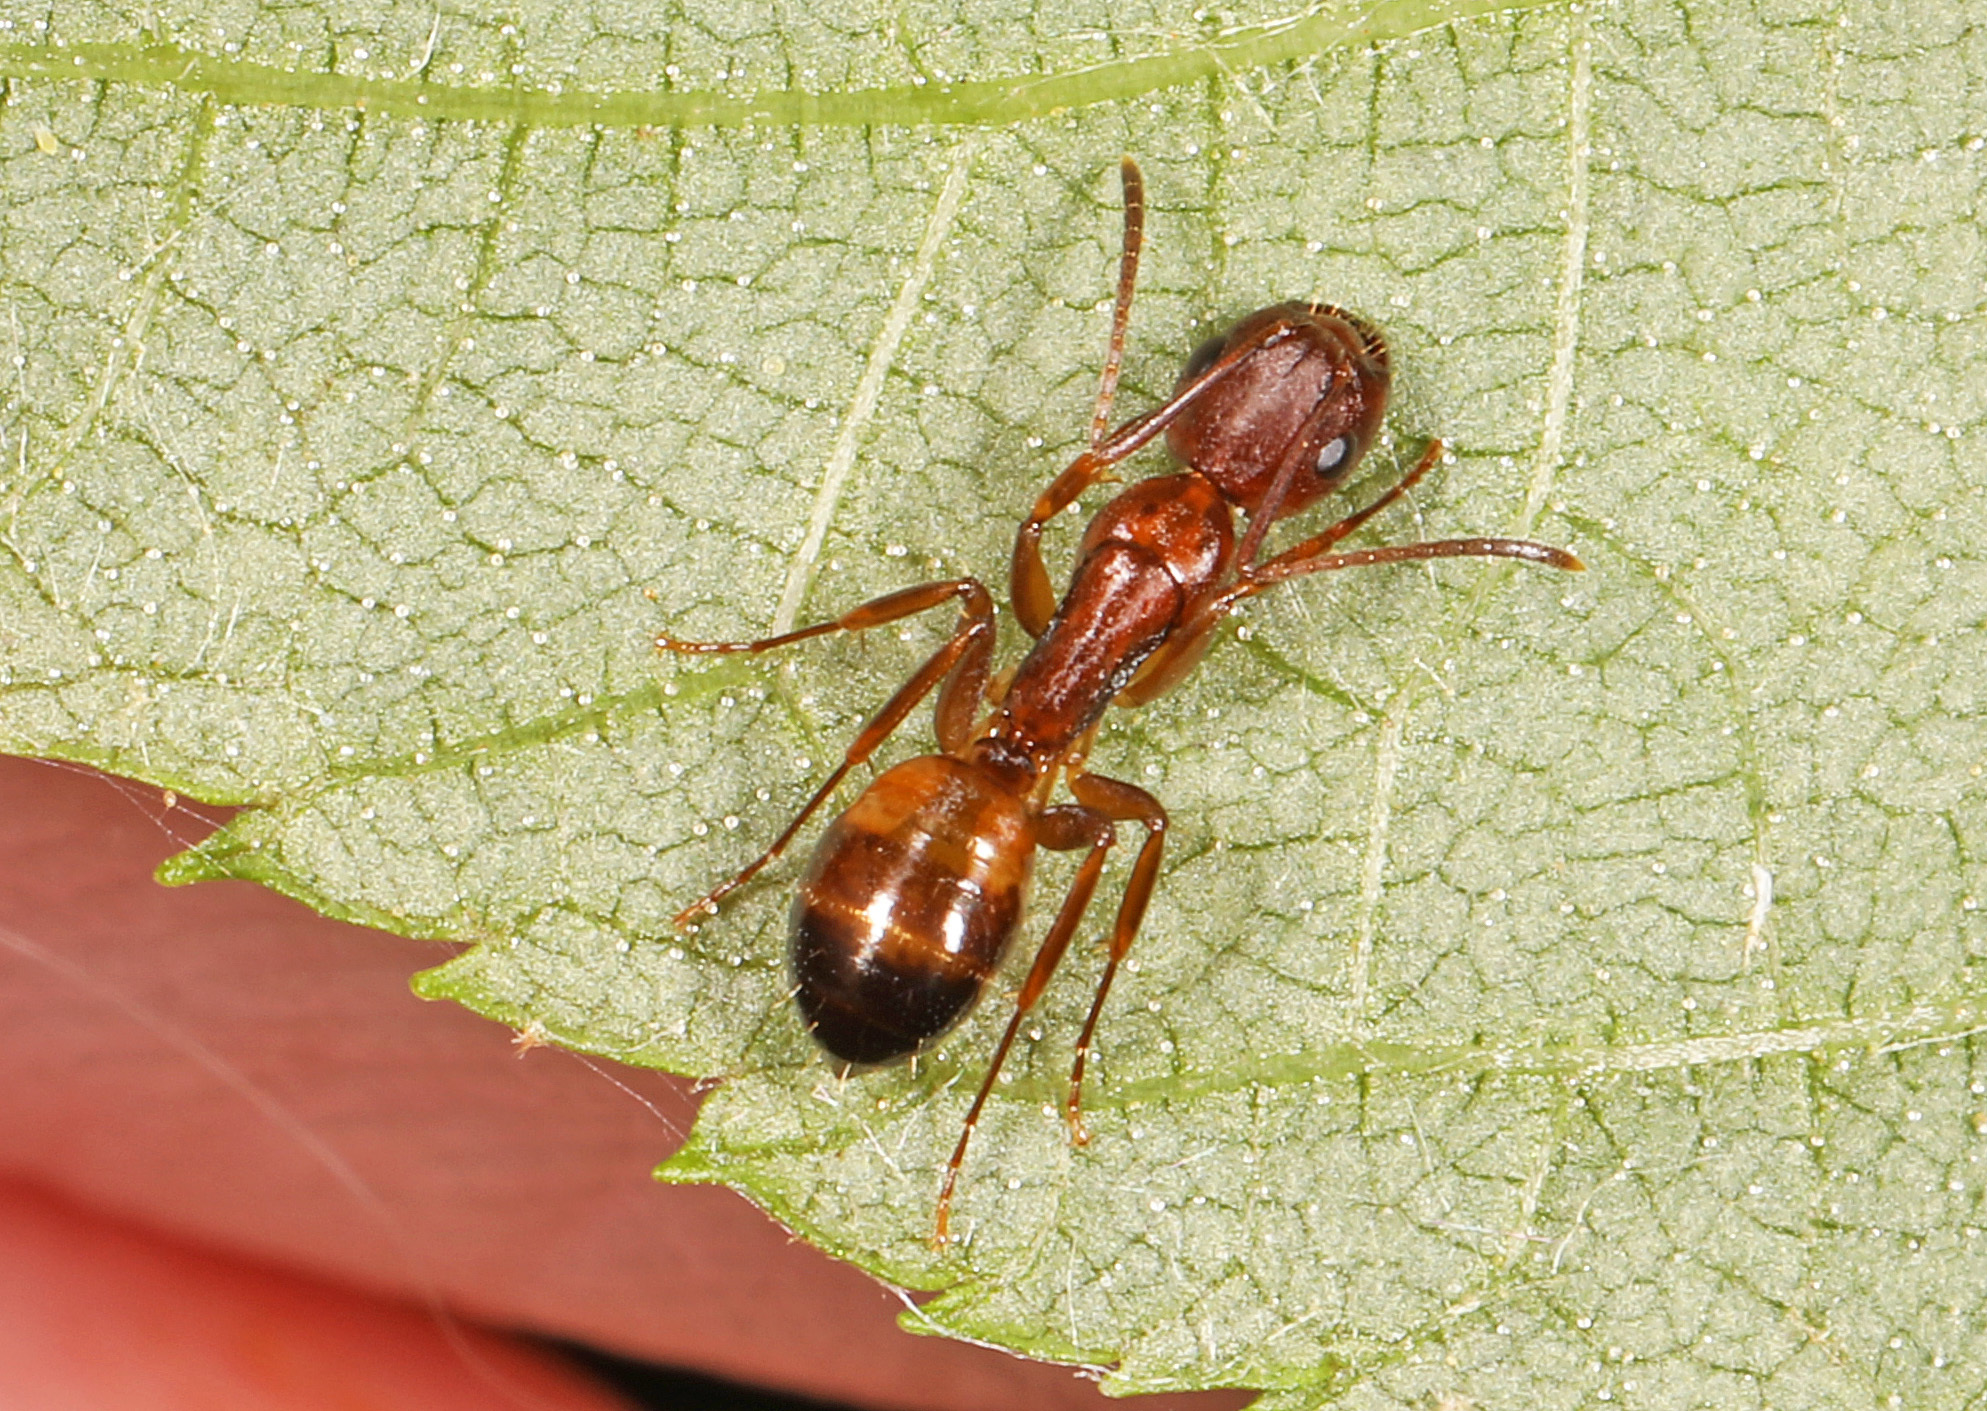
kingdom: Animalia
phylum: Arthropoda
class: Insecta
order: Hymenoptera
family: Formicidae
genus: Camponotus
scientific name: Camponotus subbarbatus
